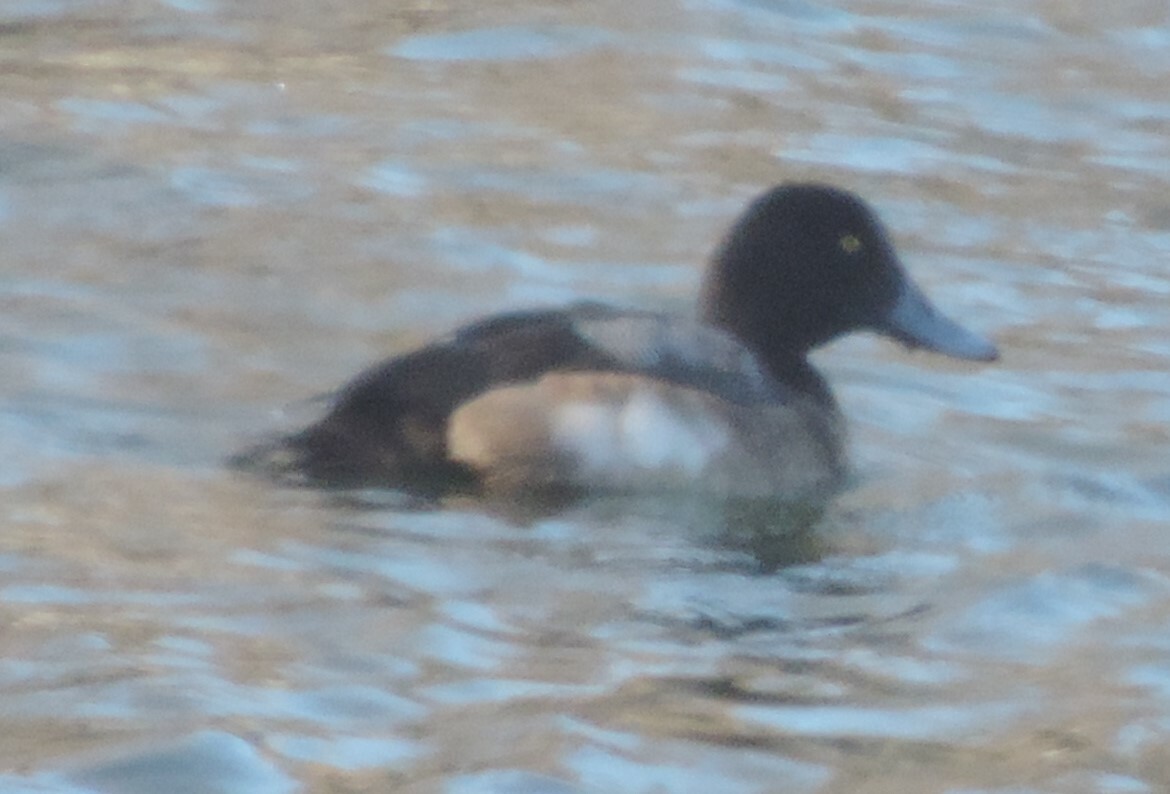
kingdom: Animalia
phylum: Chordata
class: Aves
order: Anseriformes
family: Anatidae
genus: Aythya
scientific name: Aythya marila
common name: Greater scaup
